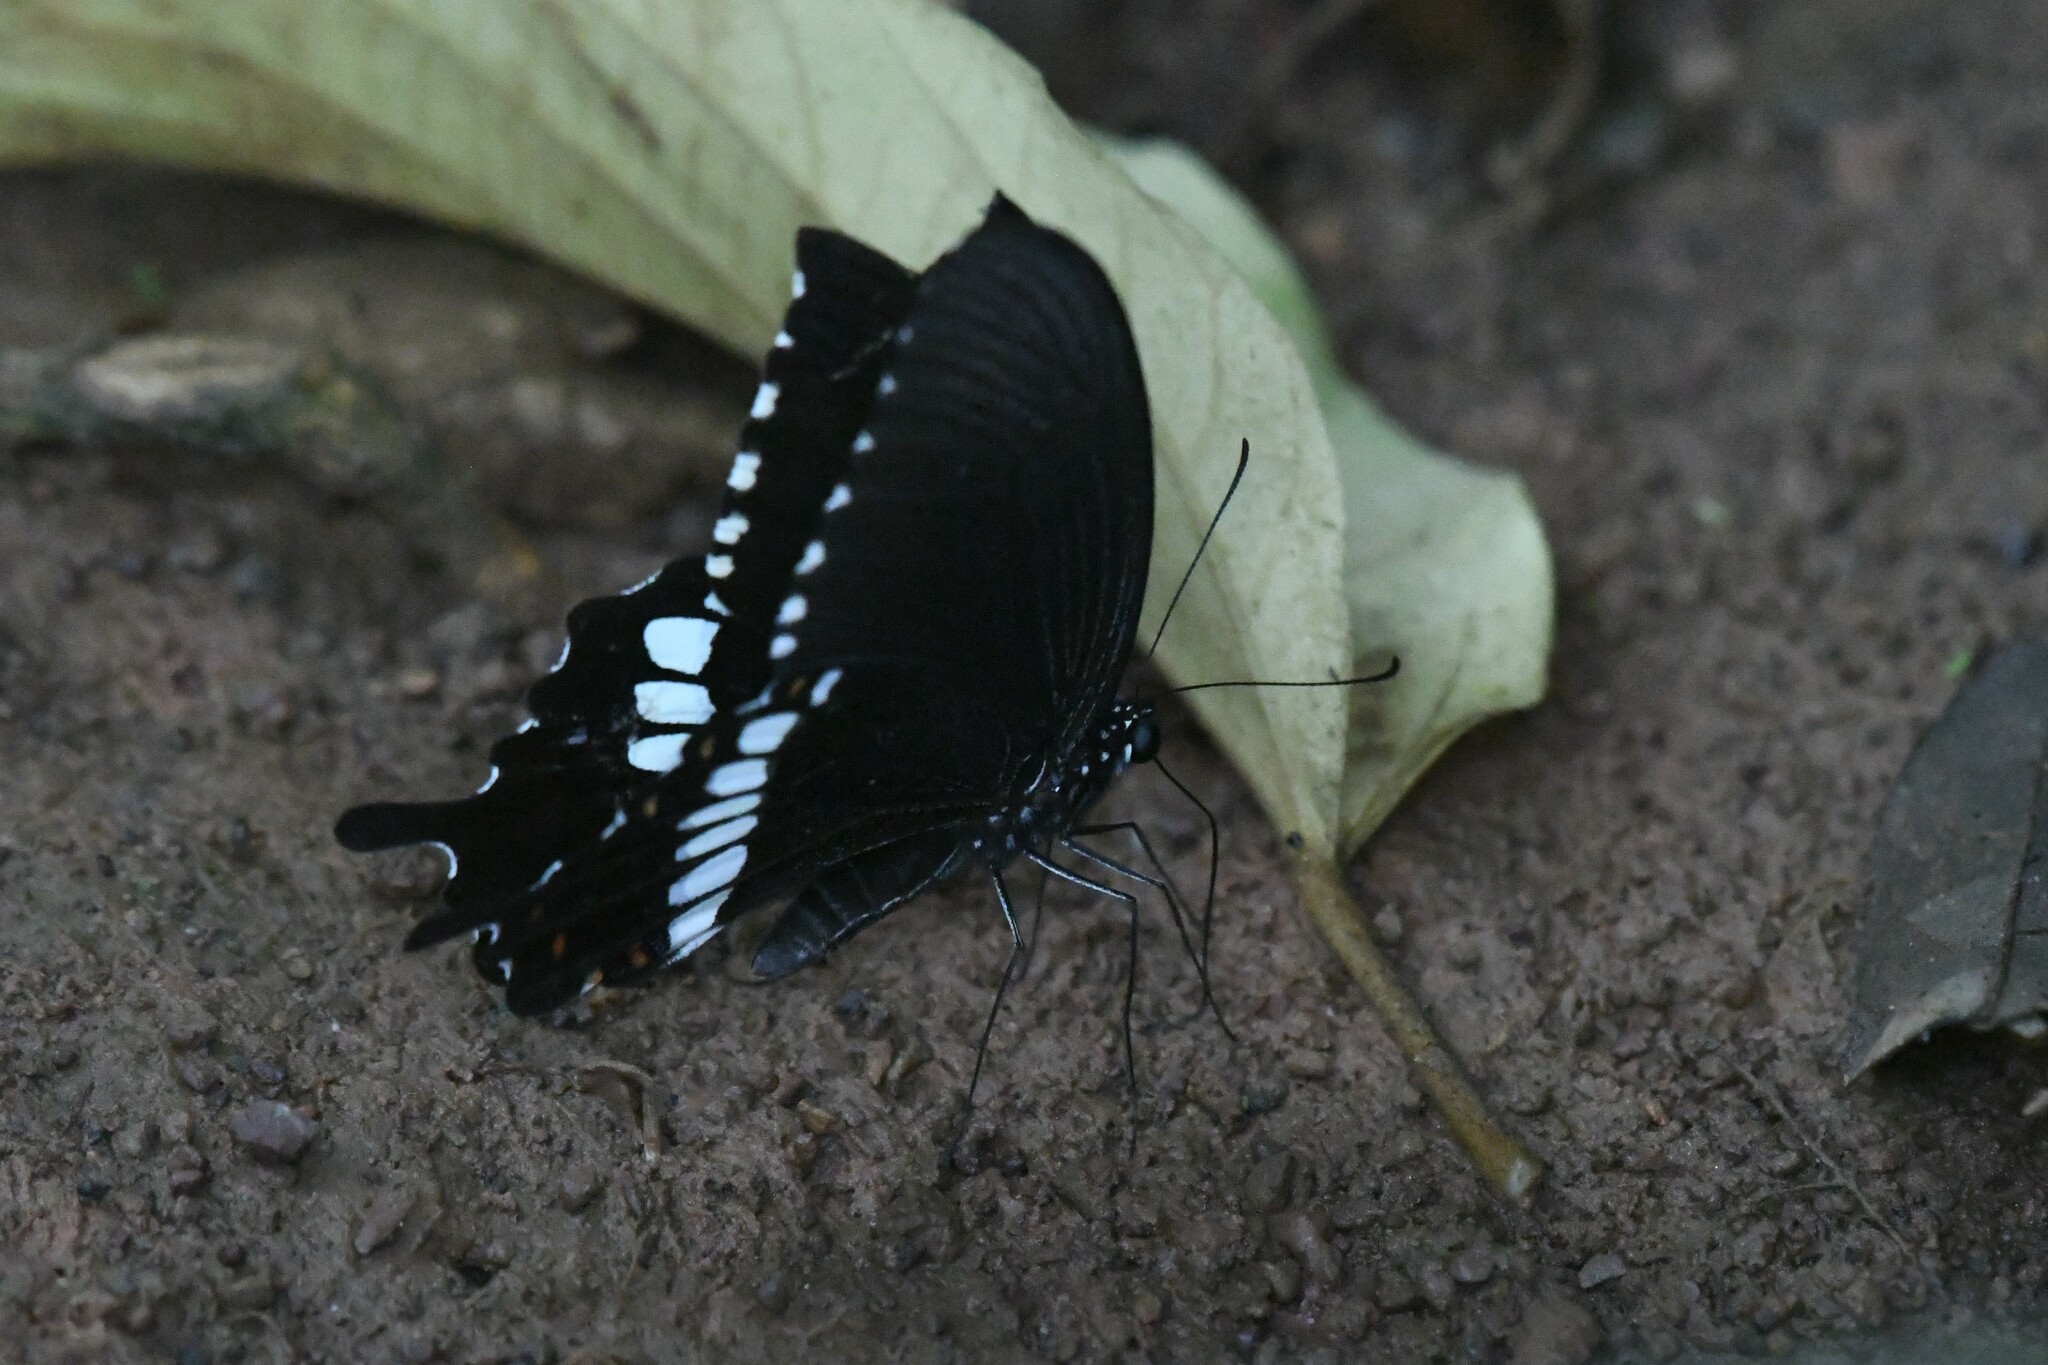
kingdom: Animalia
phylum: Arthropoda
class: Insecta
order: Lepidoptera
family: Papilionidae
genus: Papilio
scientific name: Papilio polytes
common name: Common mormon
